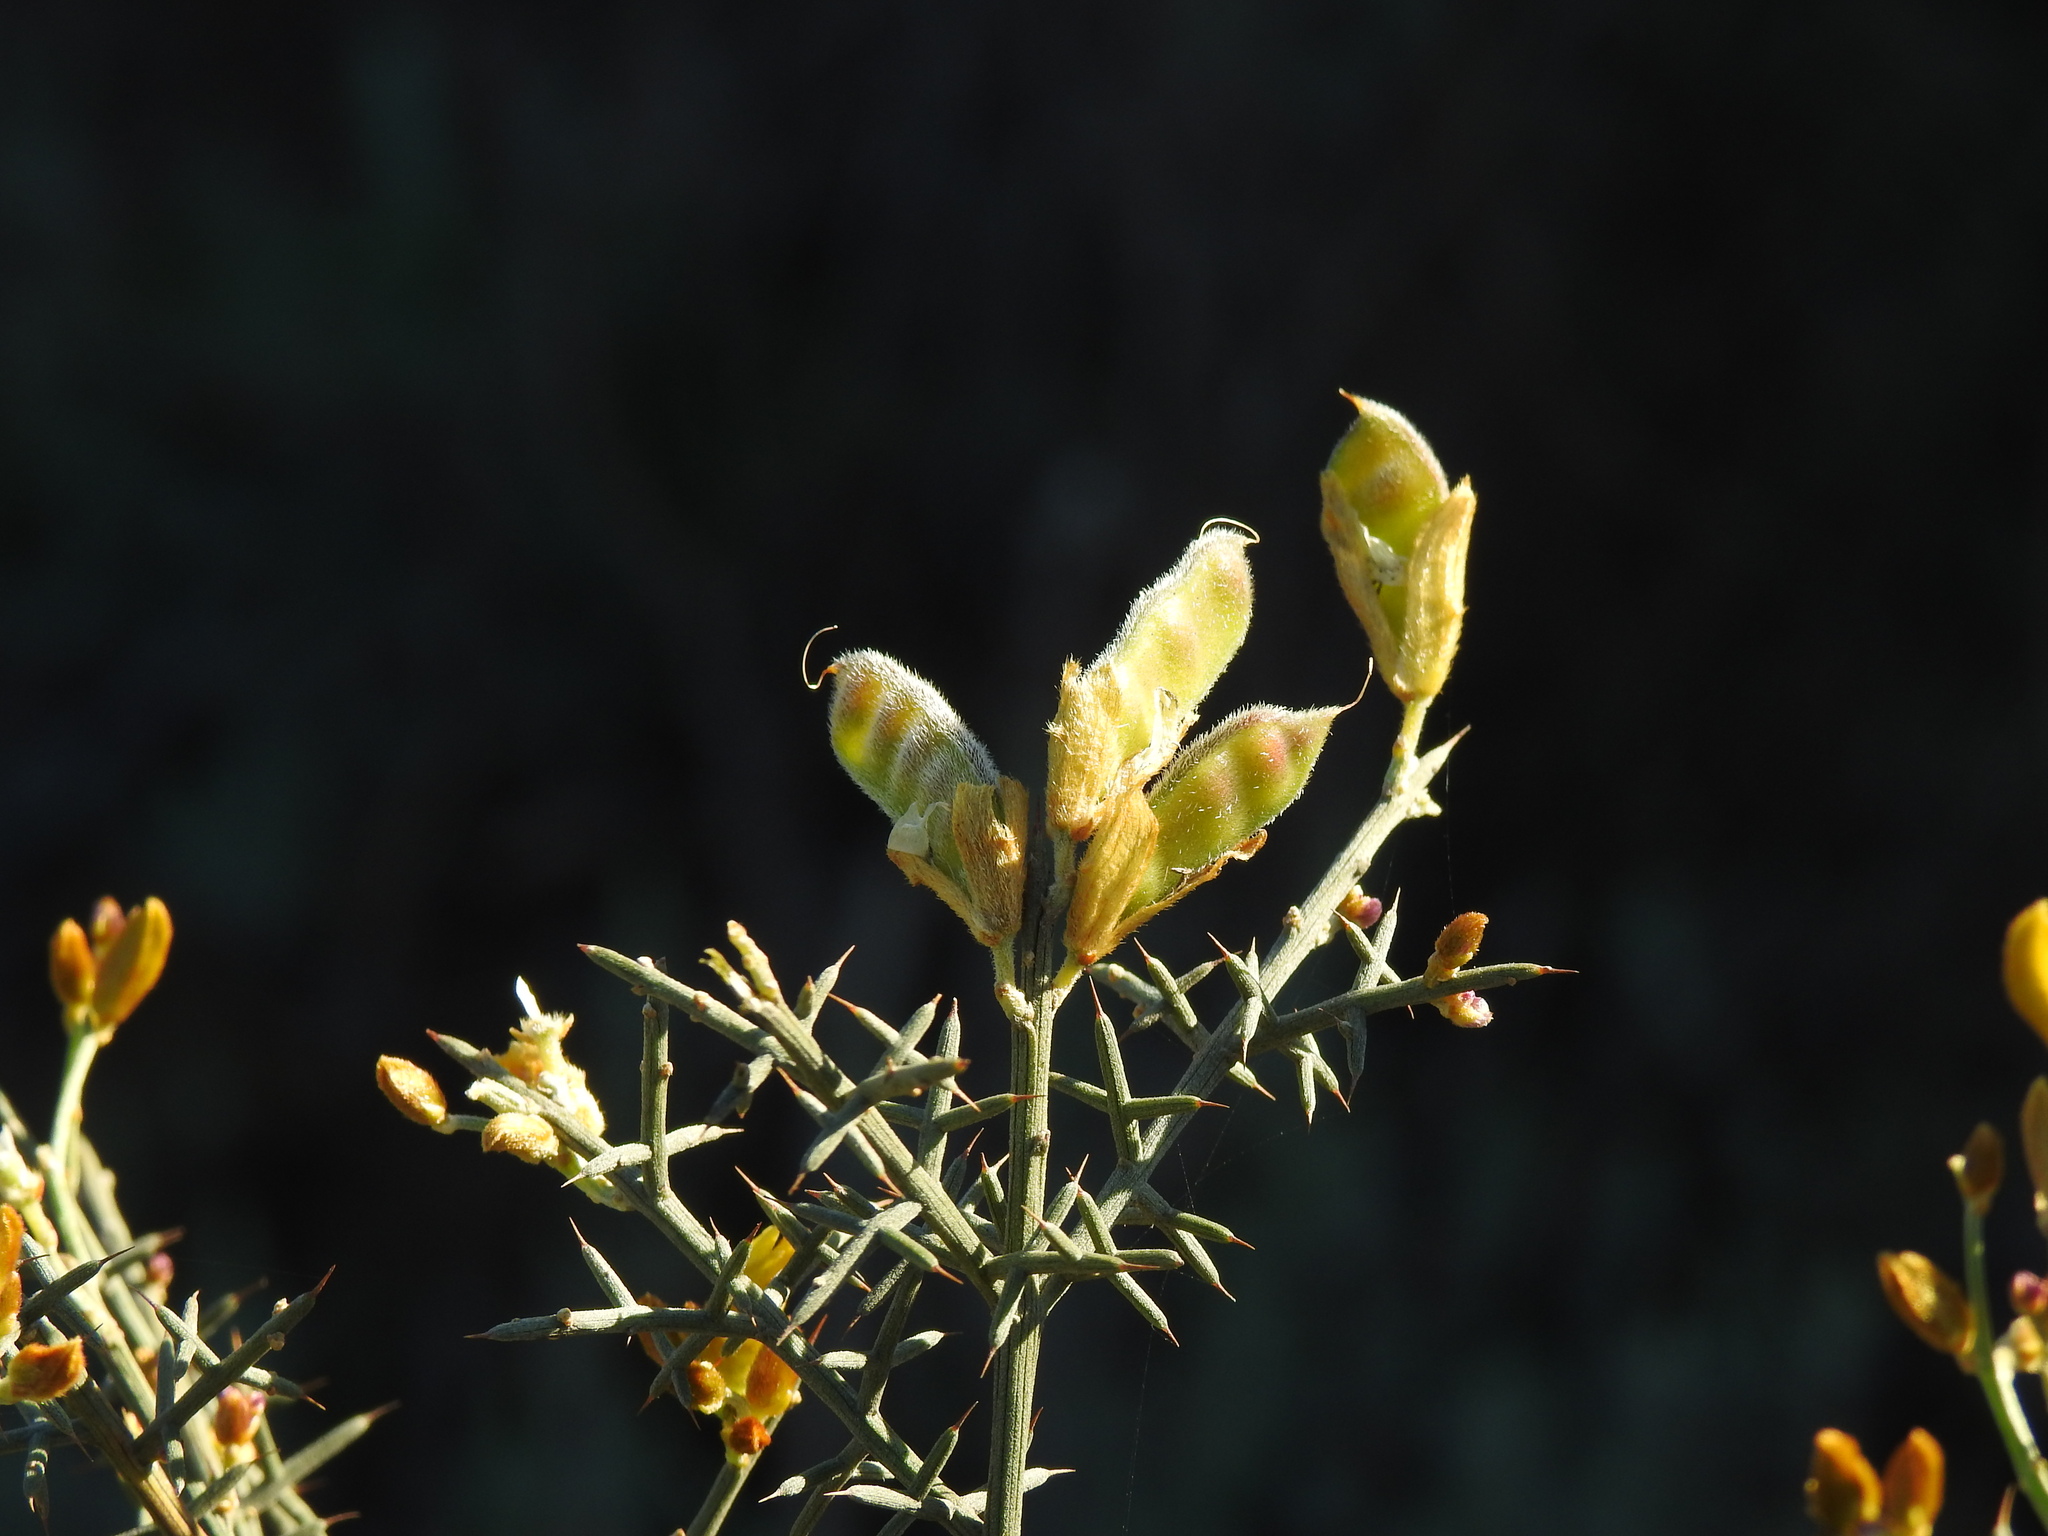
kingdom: Plantae
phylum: Tracheophyta
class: Magnoliopsida
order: Fabales
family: Fabaceae
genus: Stauracanthus
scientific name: Stauracanthus genistoides
